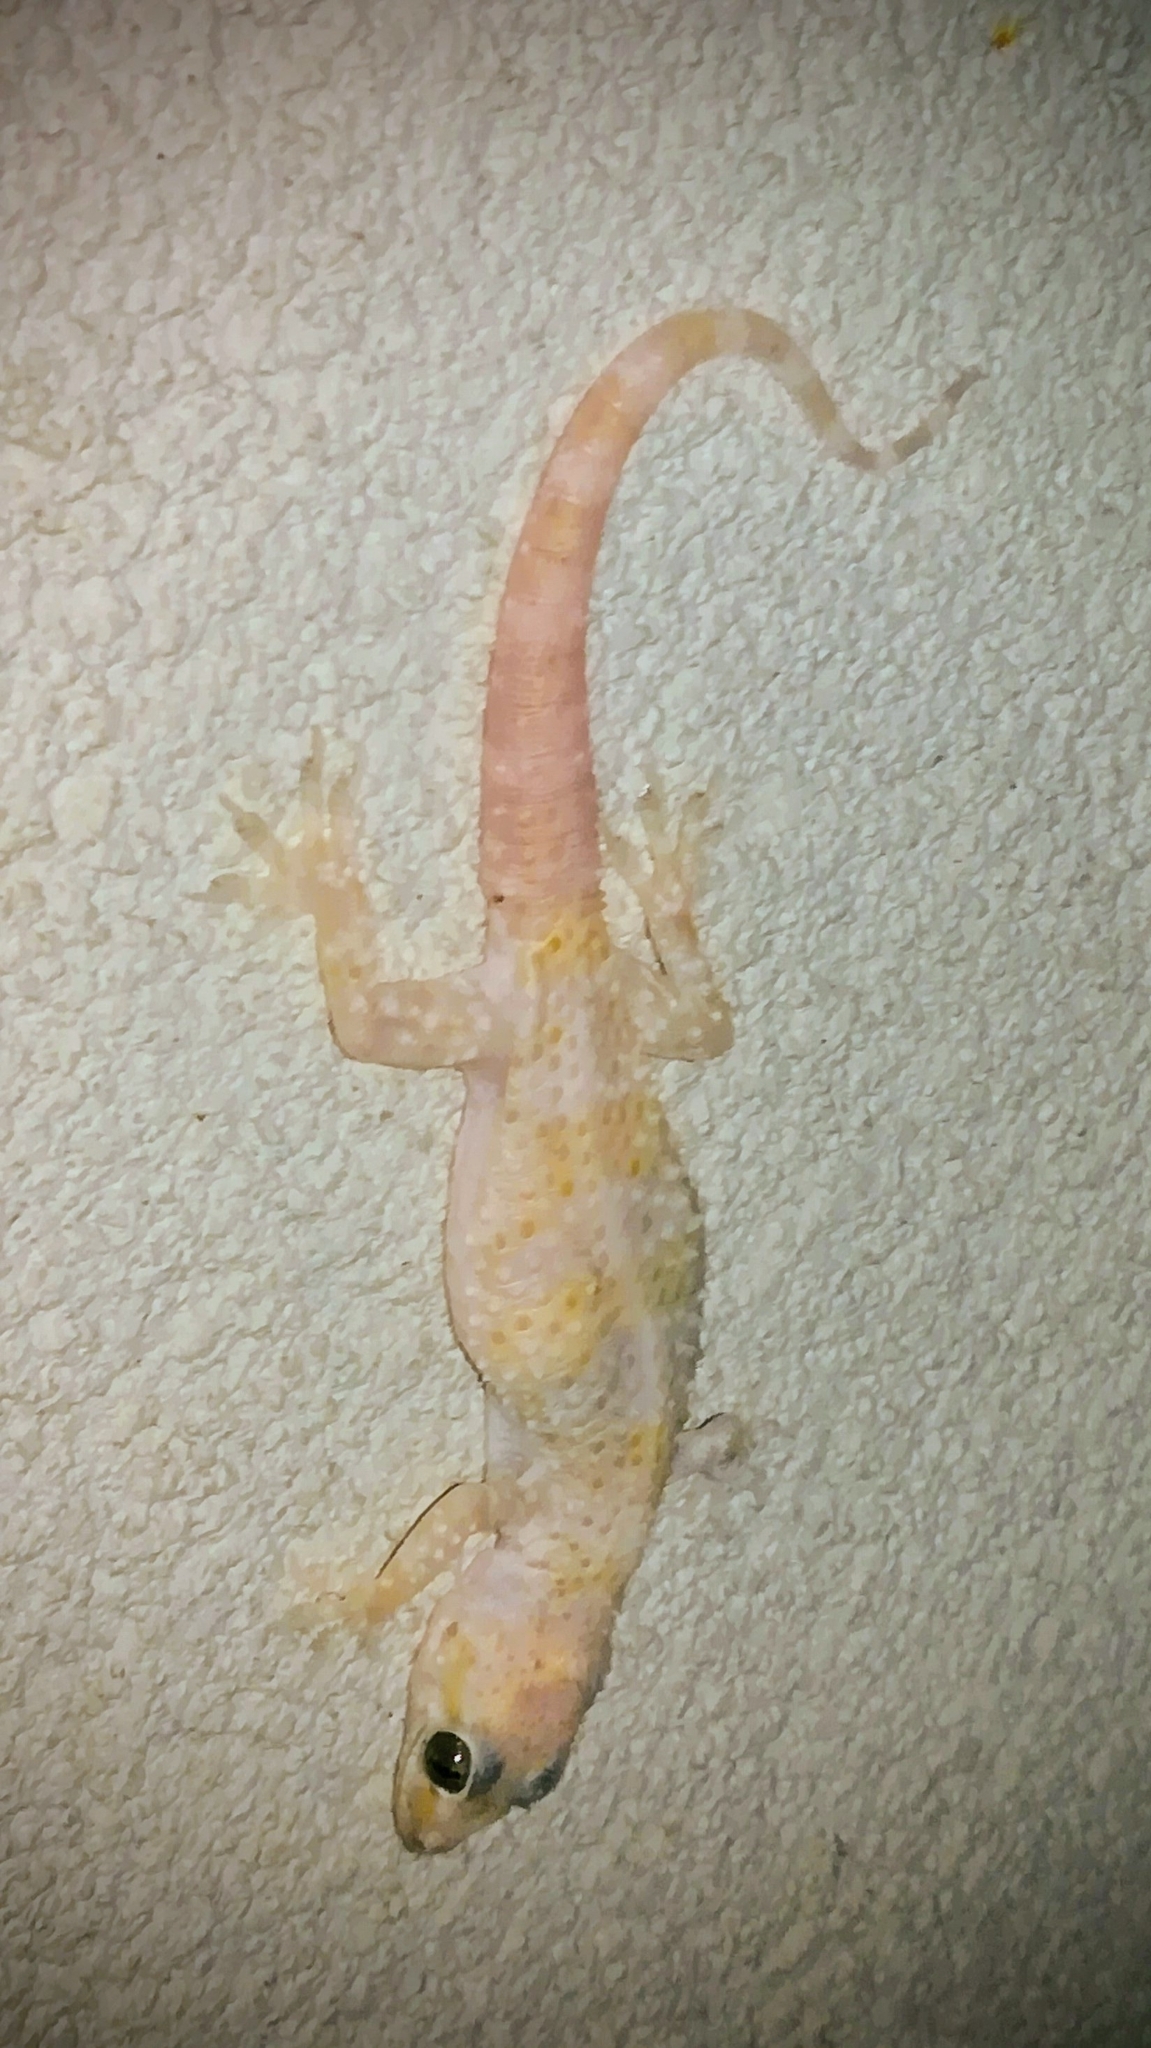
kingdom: Animalia
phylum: Chordata
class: Squamata
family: Gekkonidae
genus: Hemidactylus
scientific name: Hemidactylus turcicus
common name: Turkish gecko
